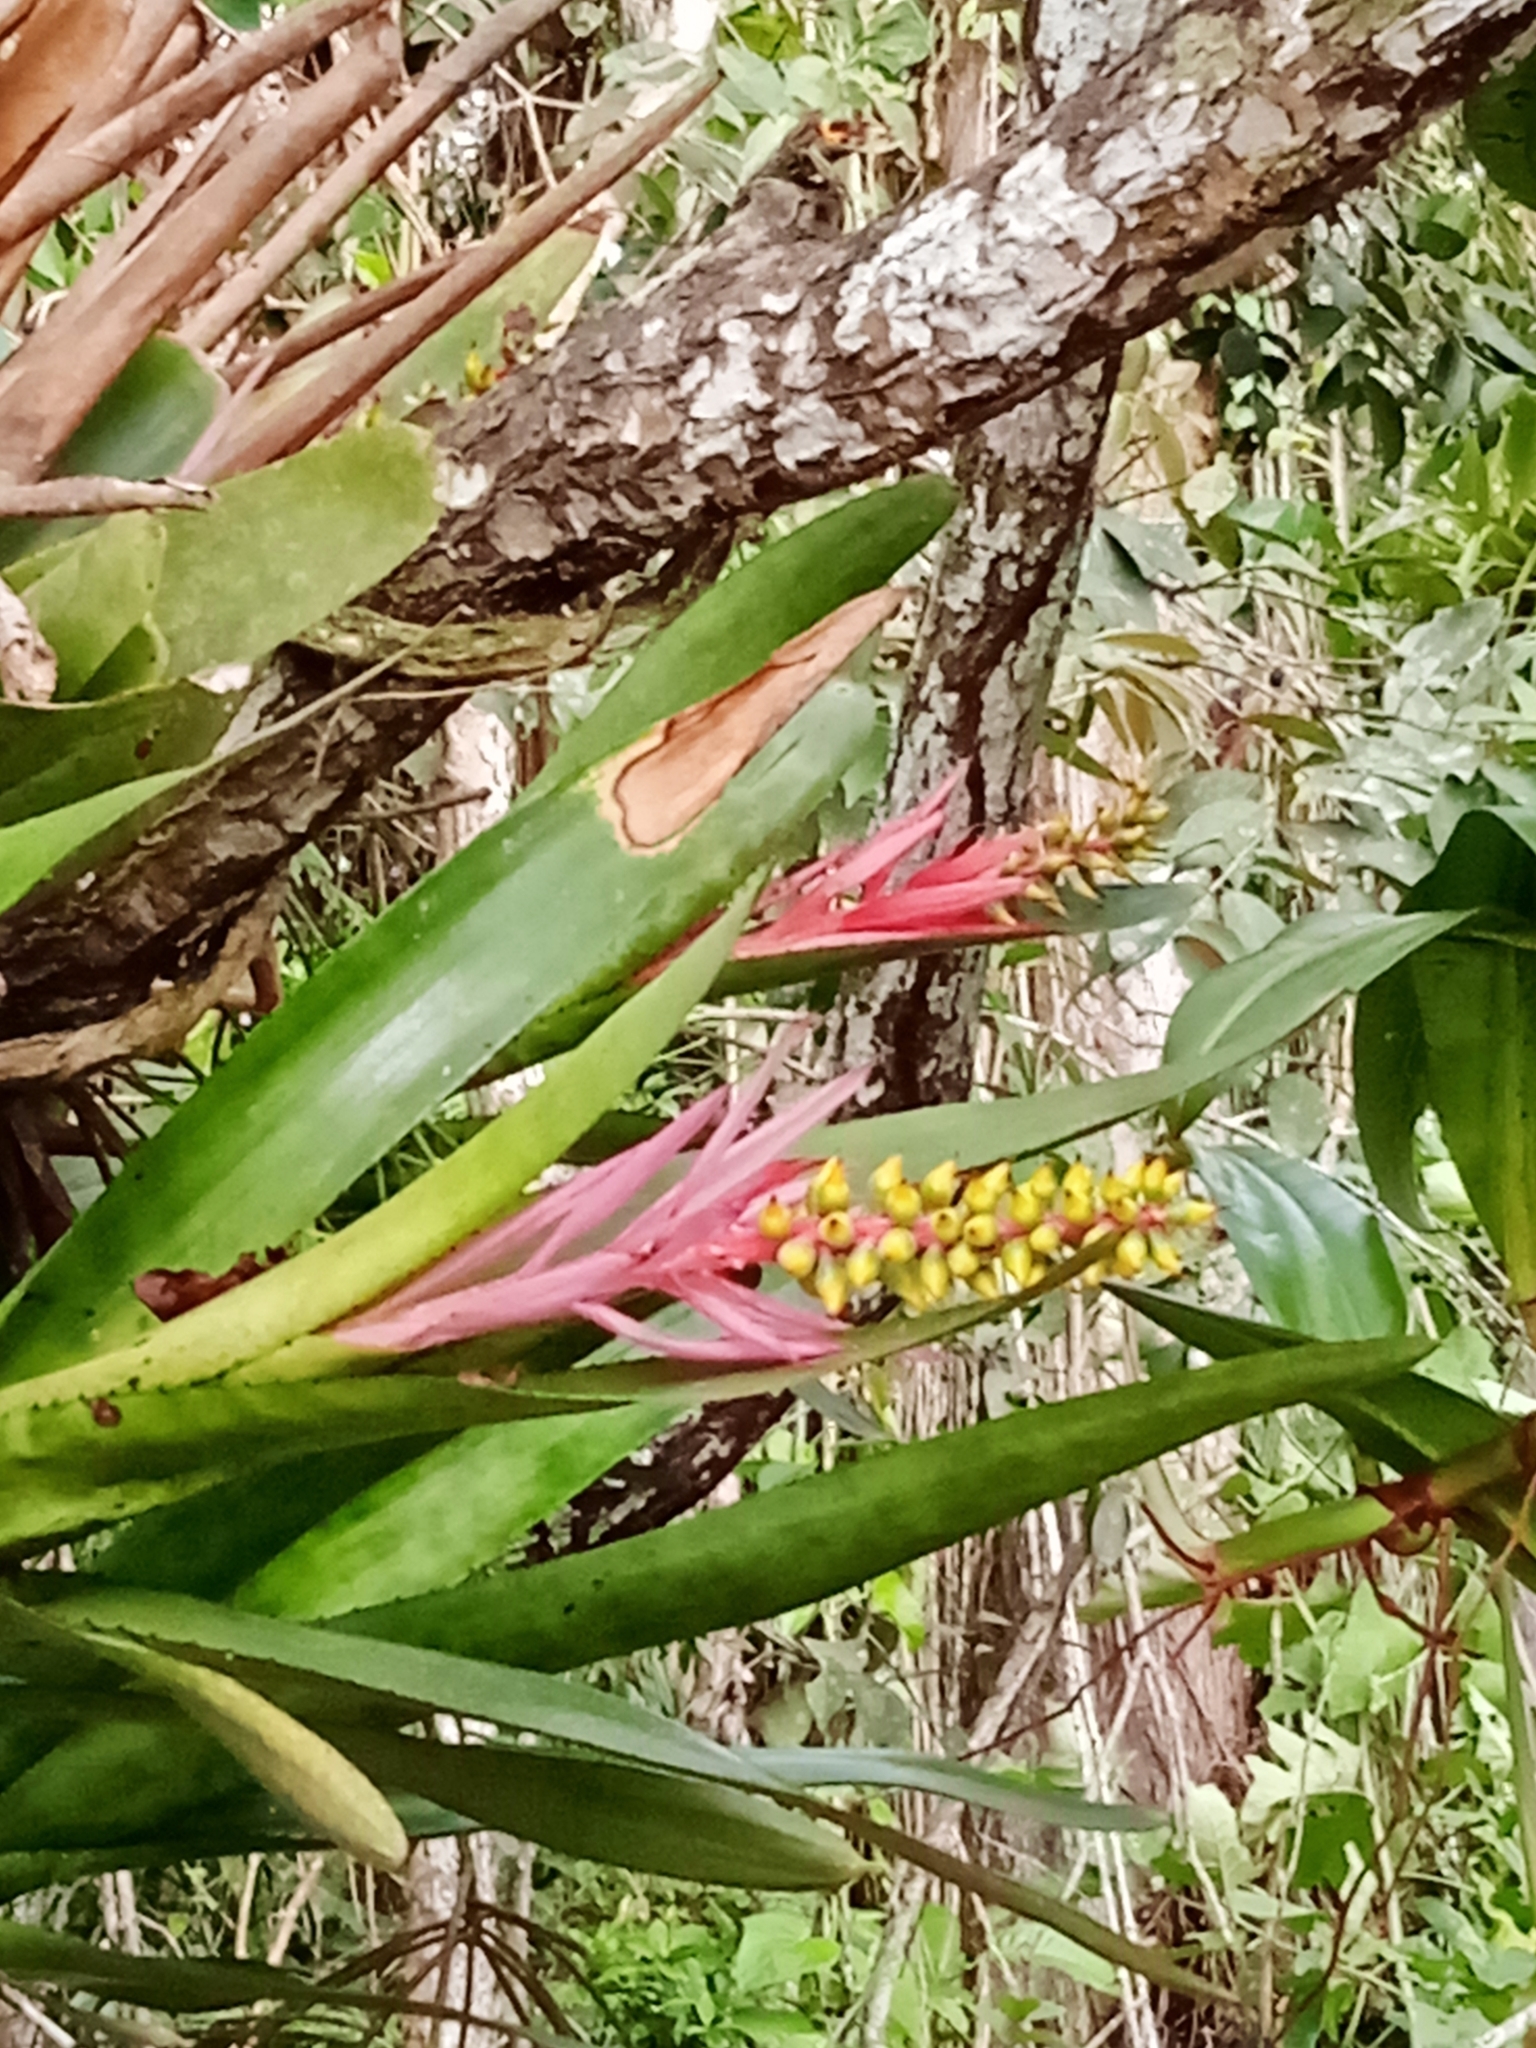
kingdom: Plantae
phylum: Tracheophyta
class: Liliopsida
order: Poales
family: Bromeliaceae
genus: Aechmea
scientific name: Aechmea nudicaulis
